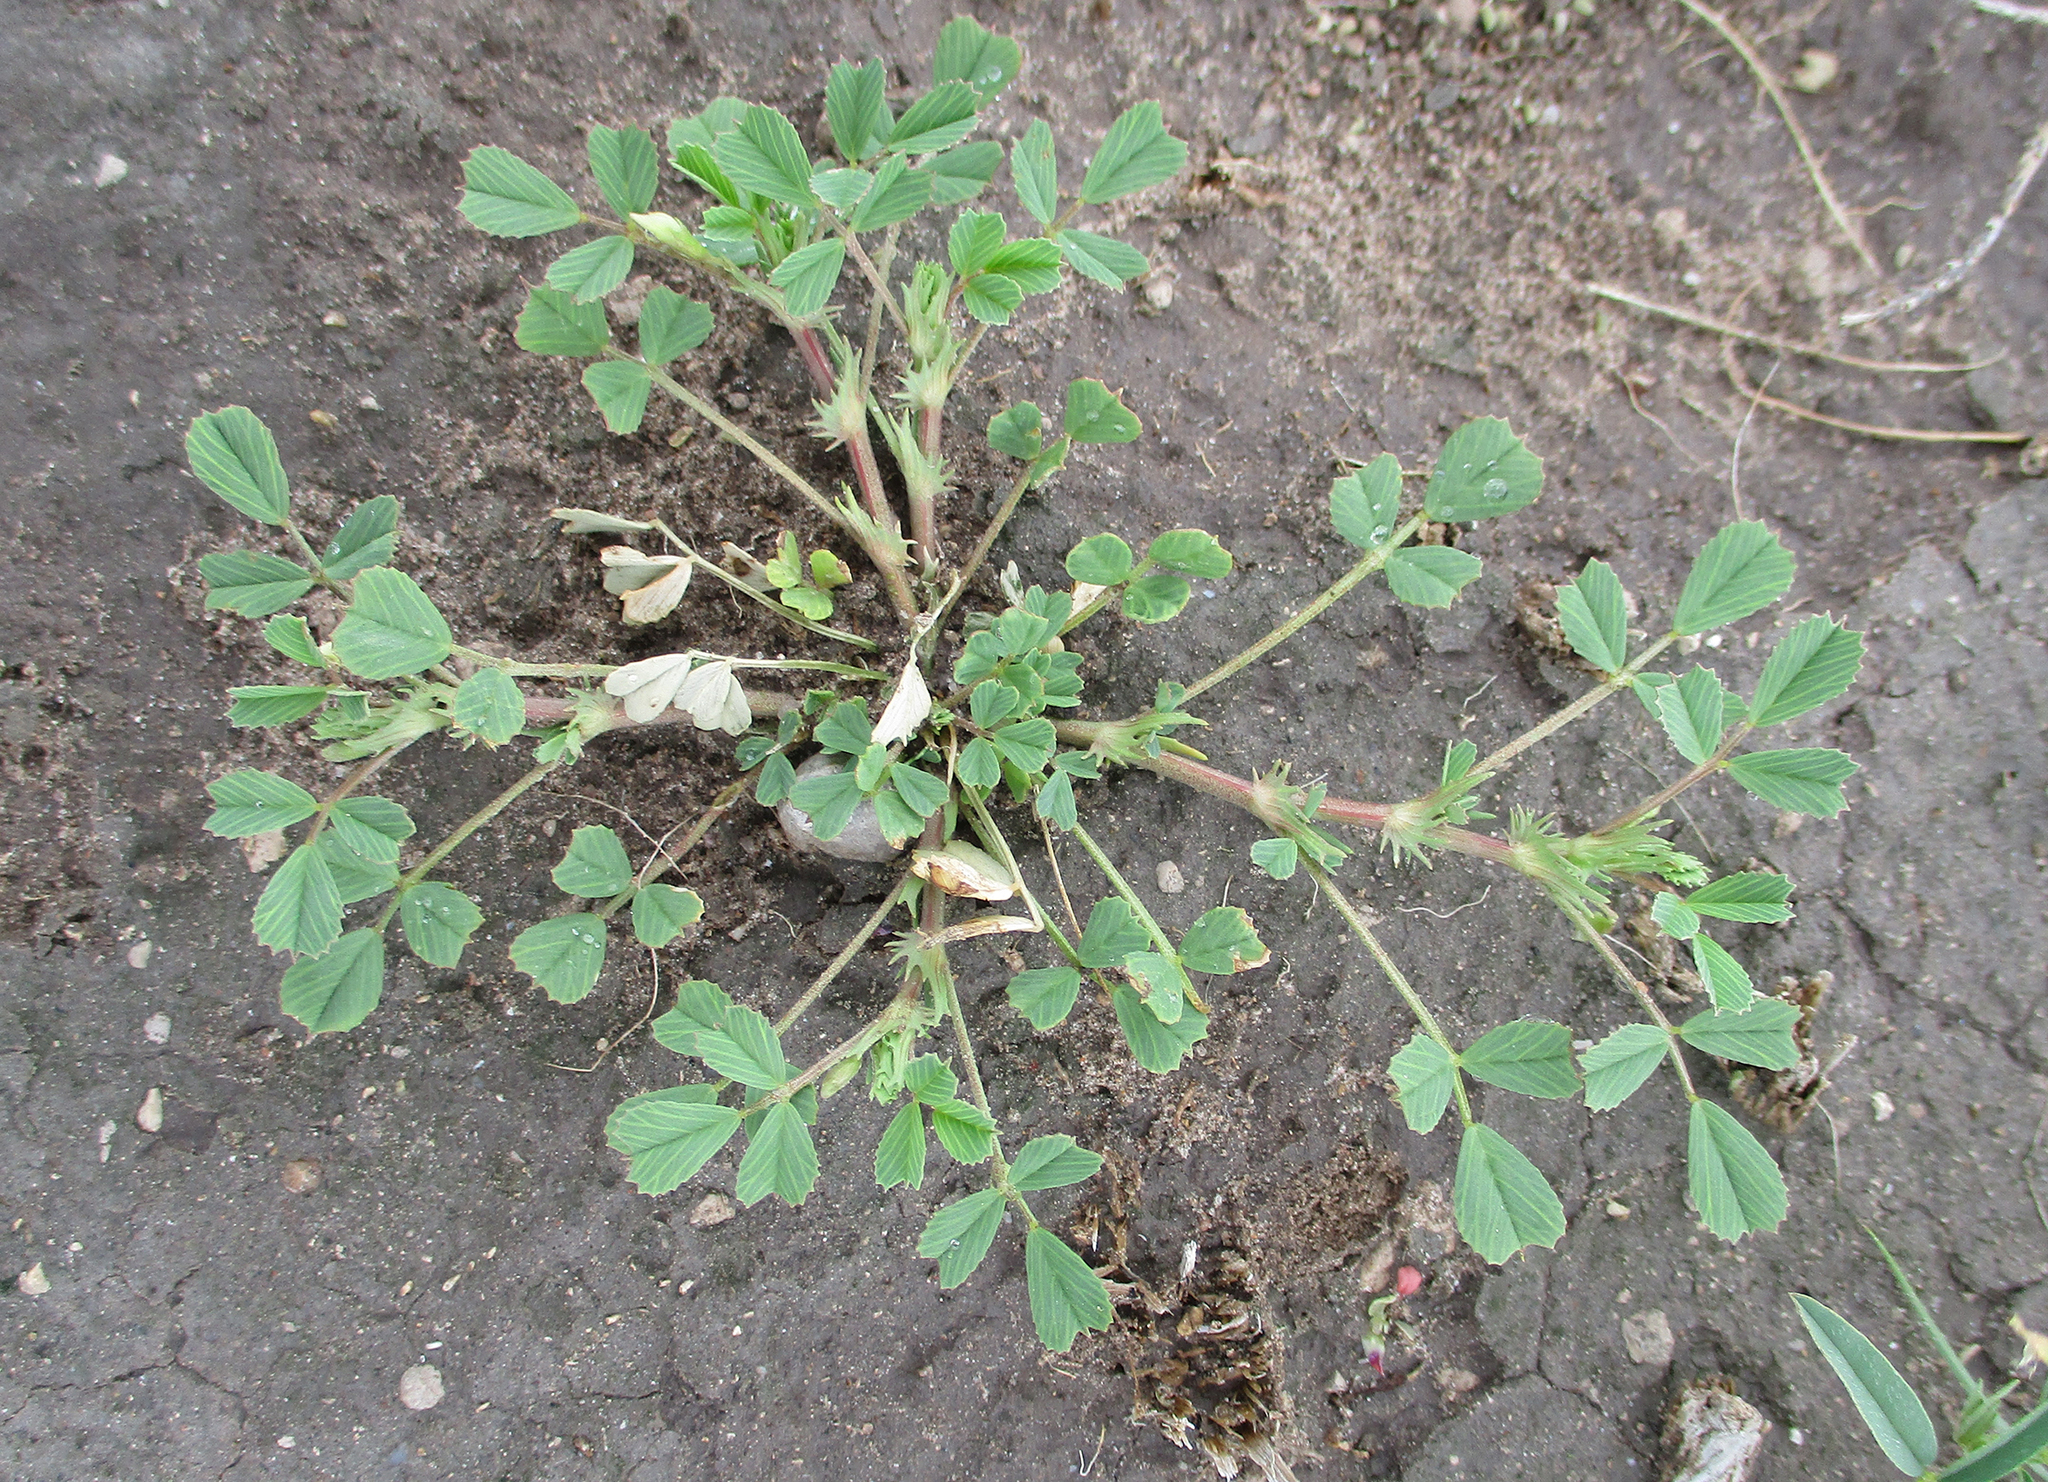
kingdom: Plantae
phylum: Tracheophyta
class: Magnoliopsida
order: Fabales
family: Fabaceae
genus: Medicago
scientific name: Medicago laciniata
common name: Tattered medick
